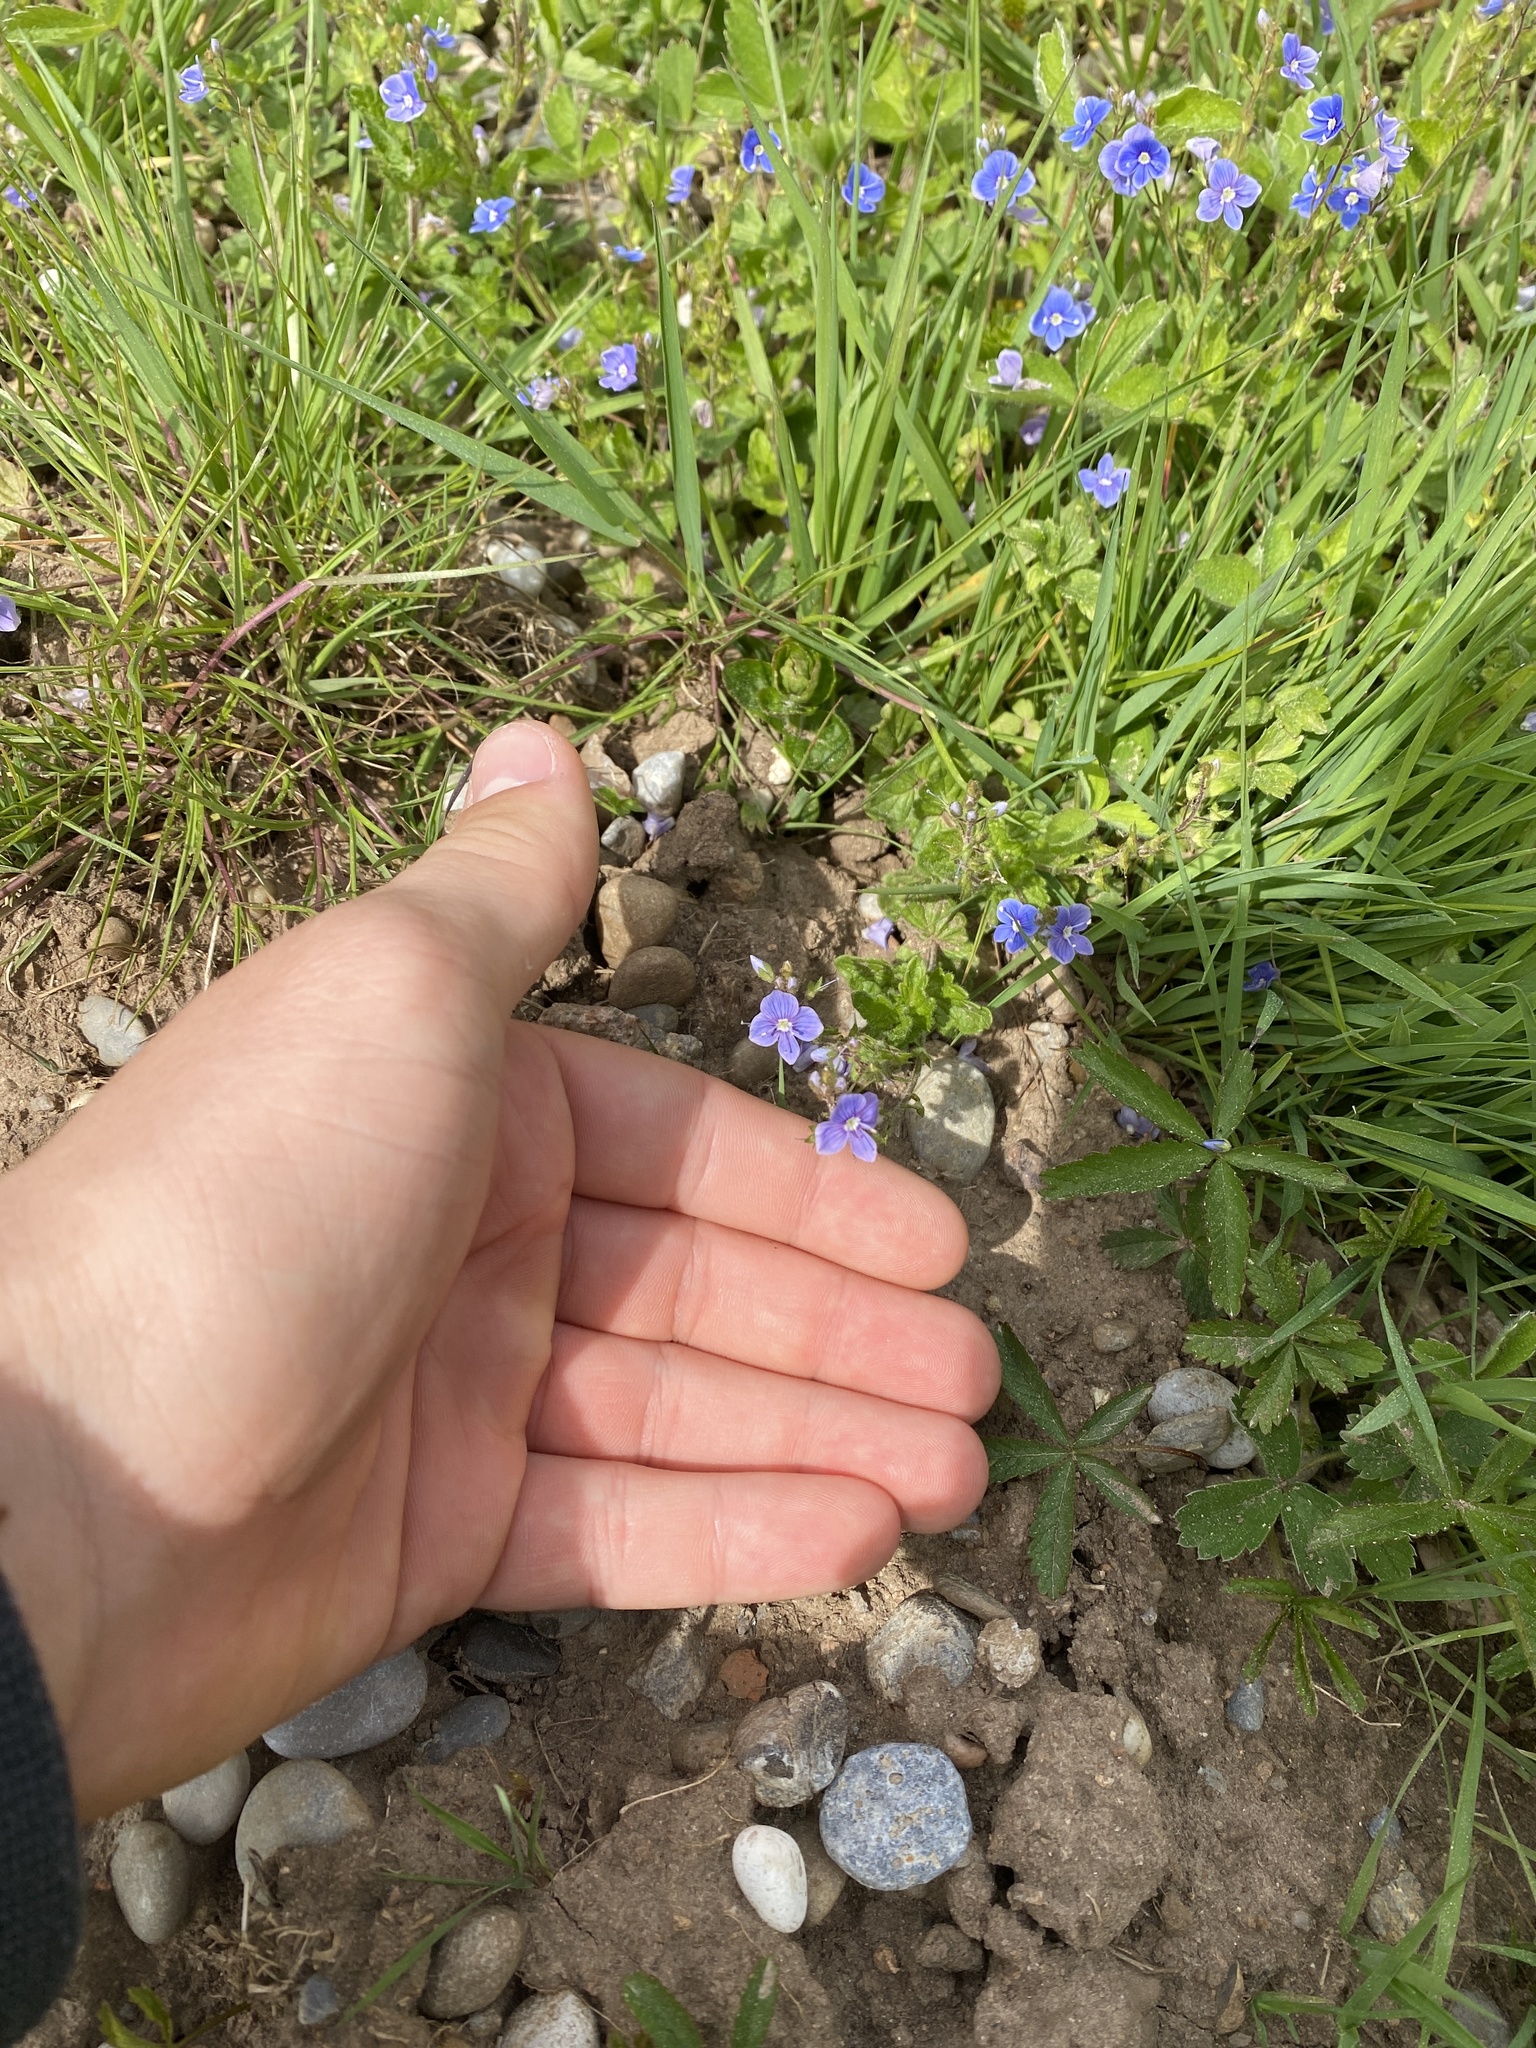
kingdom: Plantae
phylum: Tracheophyta
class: Magnoliopsida
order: Lamiales
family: Plantaginaceae
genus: Veronica
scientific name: Veronica chamaedrys
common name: Germander speedwell
